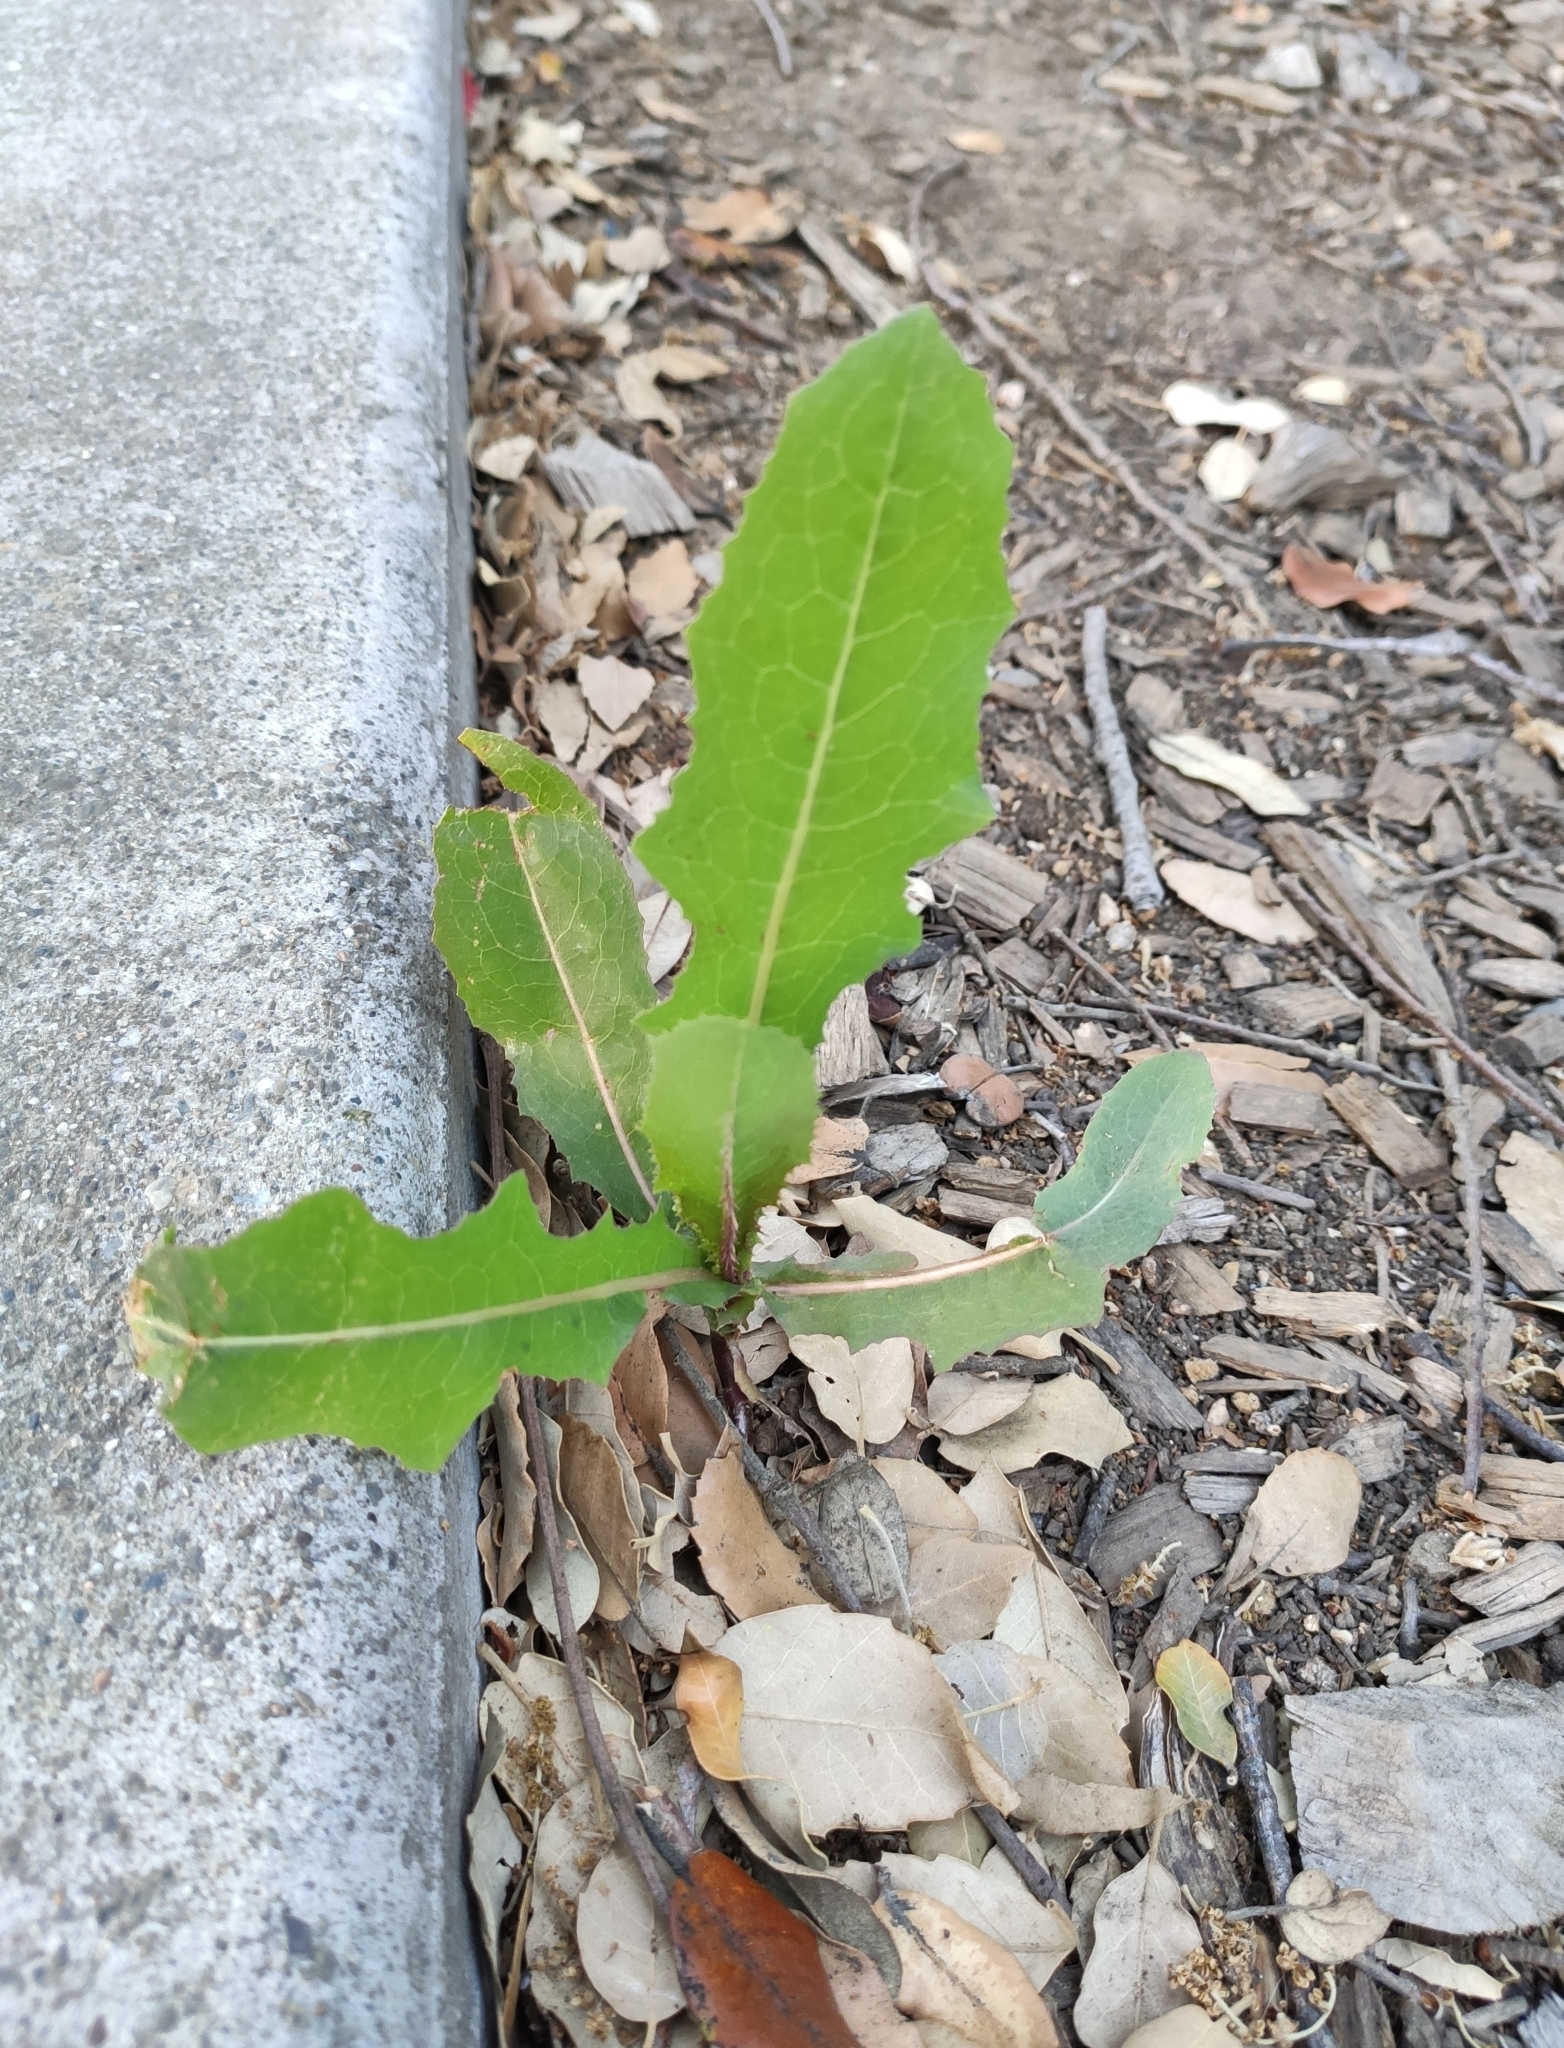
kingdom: Plantae
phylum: Tracheophyta
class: Magnoliopsida
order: Asterales
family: Asteraceae
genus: Lactuca
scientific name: Lactuca serriola
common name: Prickly lettuce
